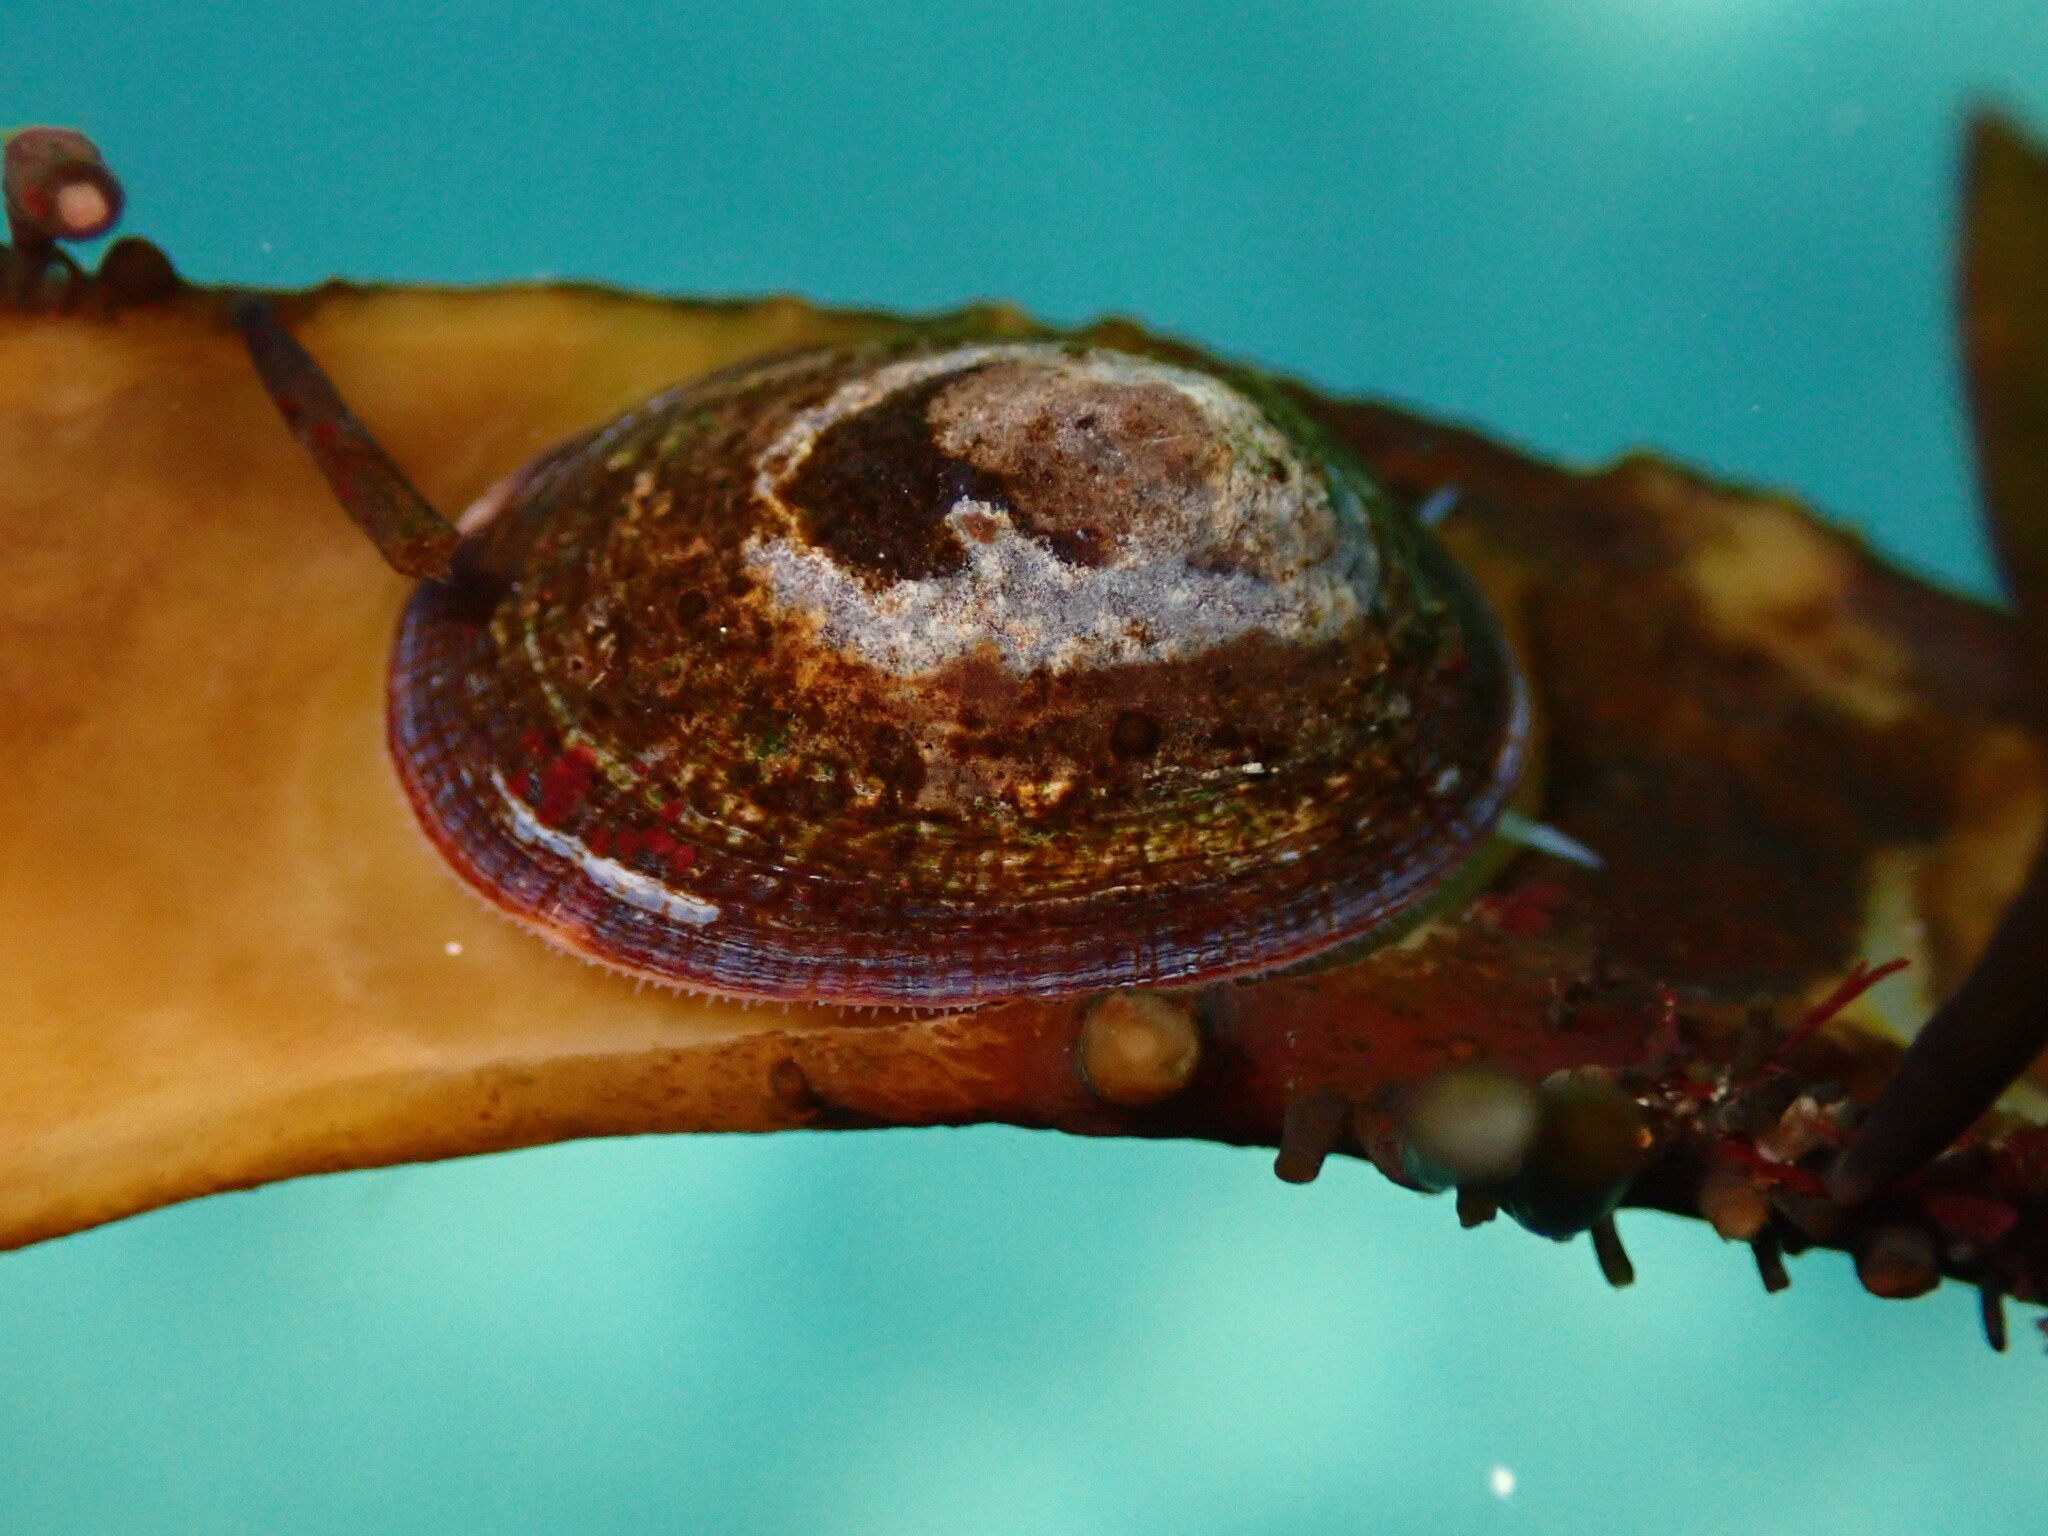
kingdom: Animalia
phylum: Mollusca
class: Gastropoda
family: Lottiidae
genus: Discurria
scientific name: Discurria insessa
